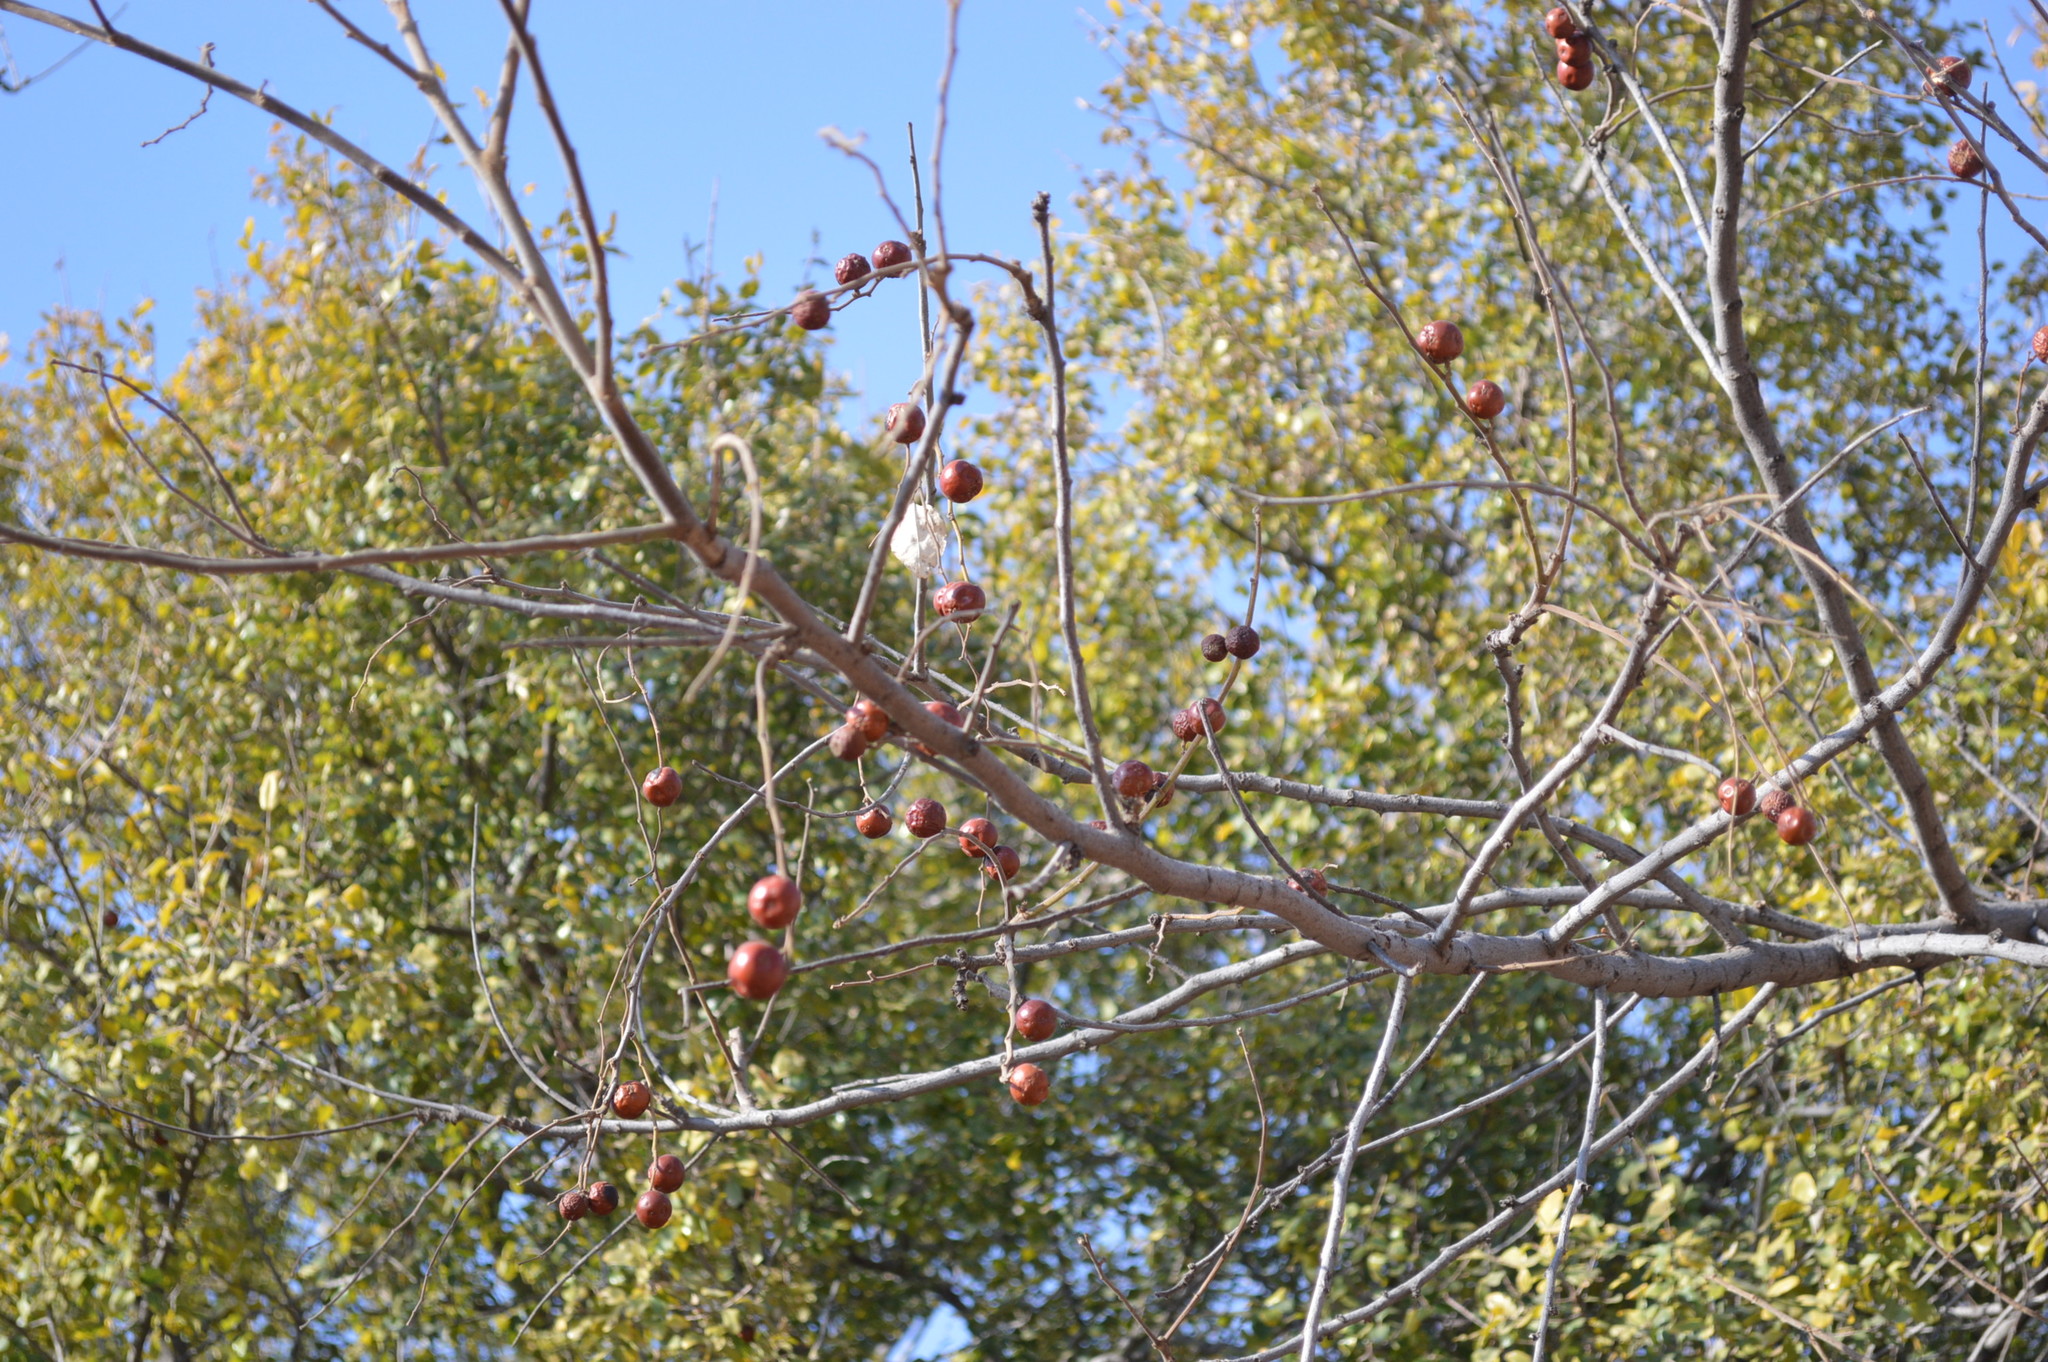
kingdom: Plantae
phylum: Tracheophyta
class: Magnoliopsida
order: Rosales
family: Rhamnaceae
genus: Ziziphus
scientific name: Ziziphus mucronata
